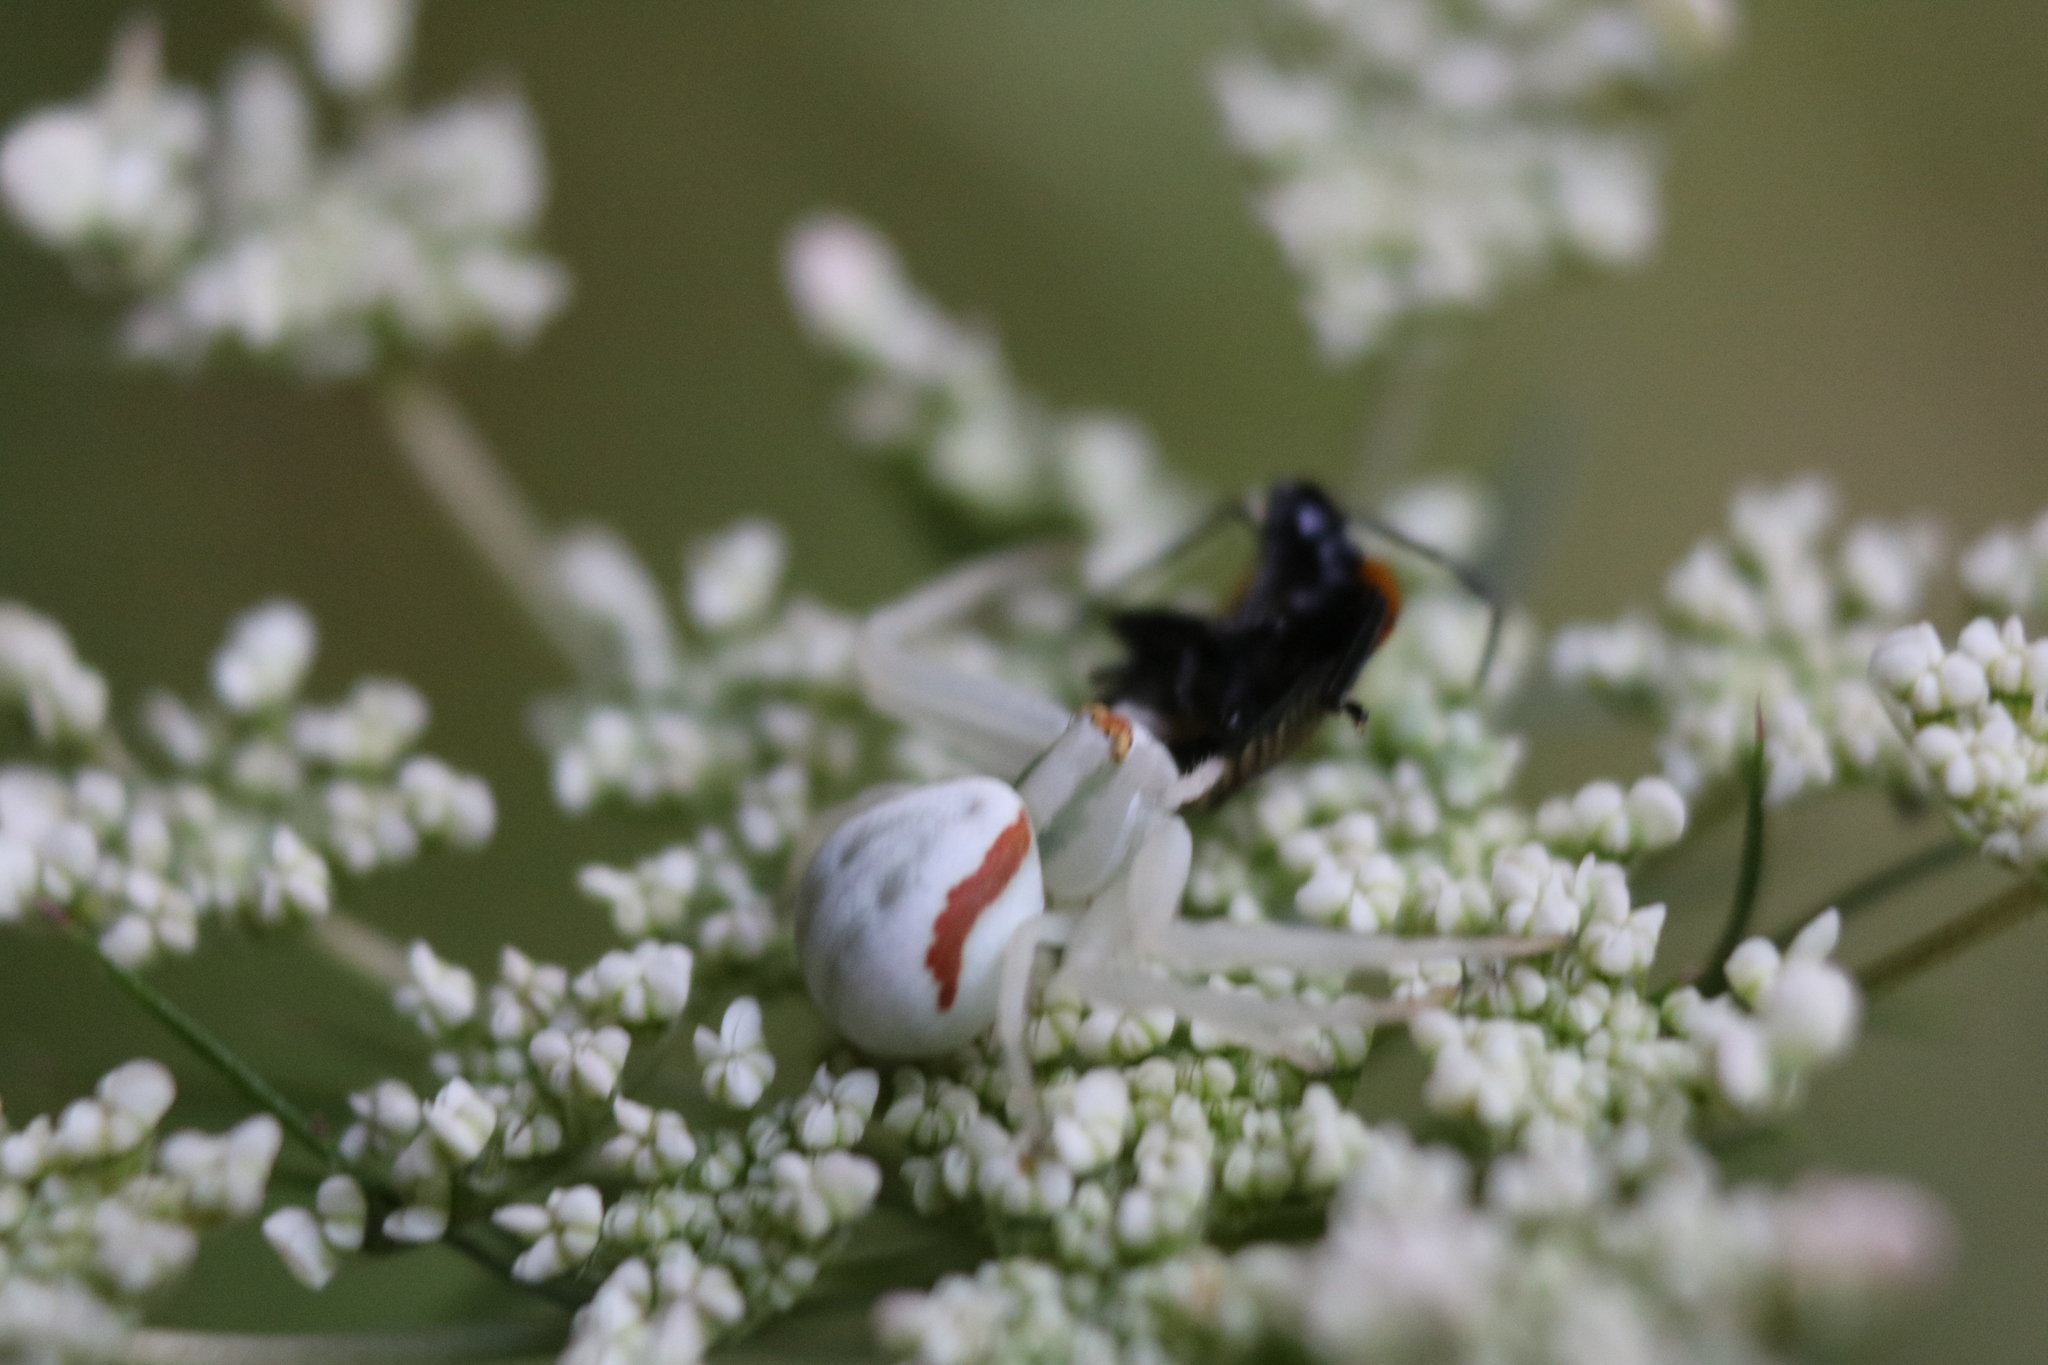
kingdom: Animalia
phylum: Arthropoda
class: Arachnida
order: Araneae
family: Thomisidae
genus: Misumena
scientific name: Misumena vatia
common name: Goldenrod crab spider
